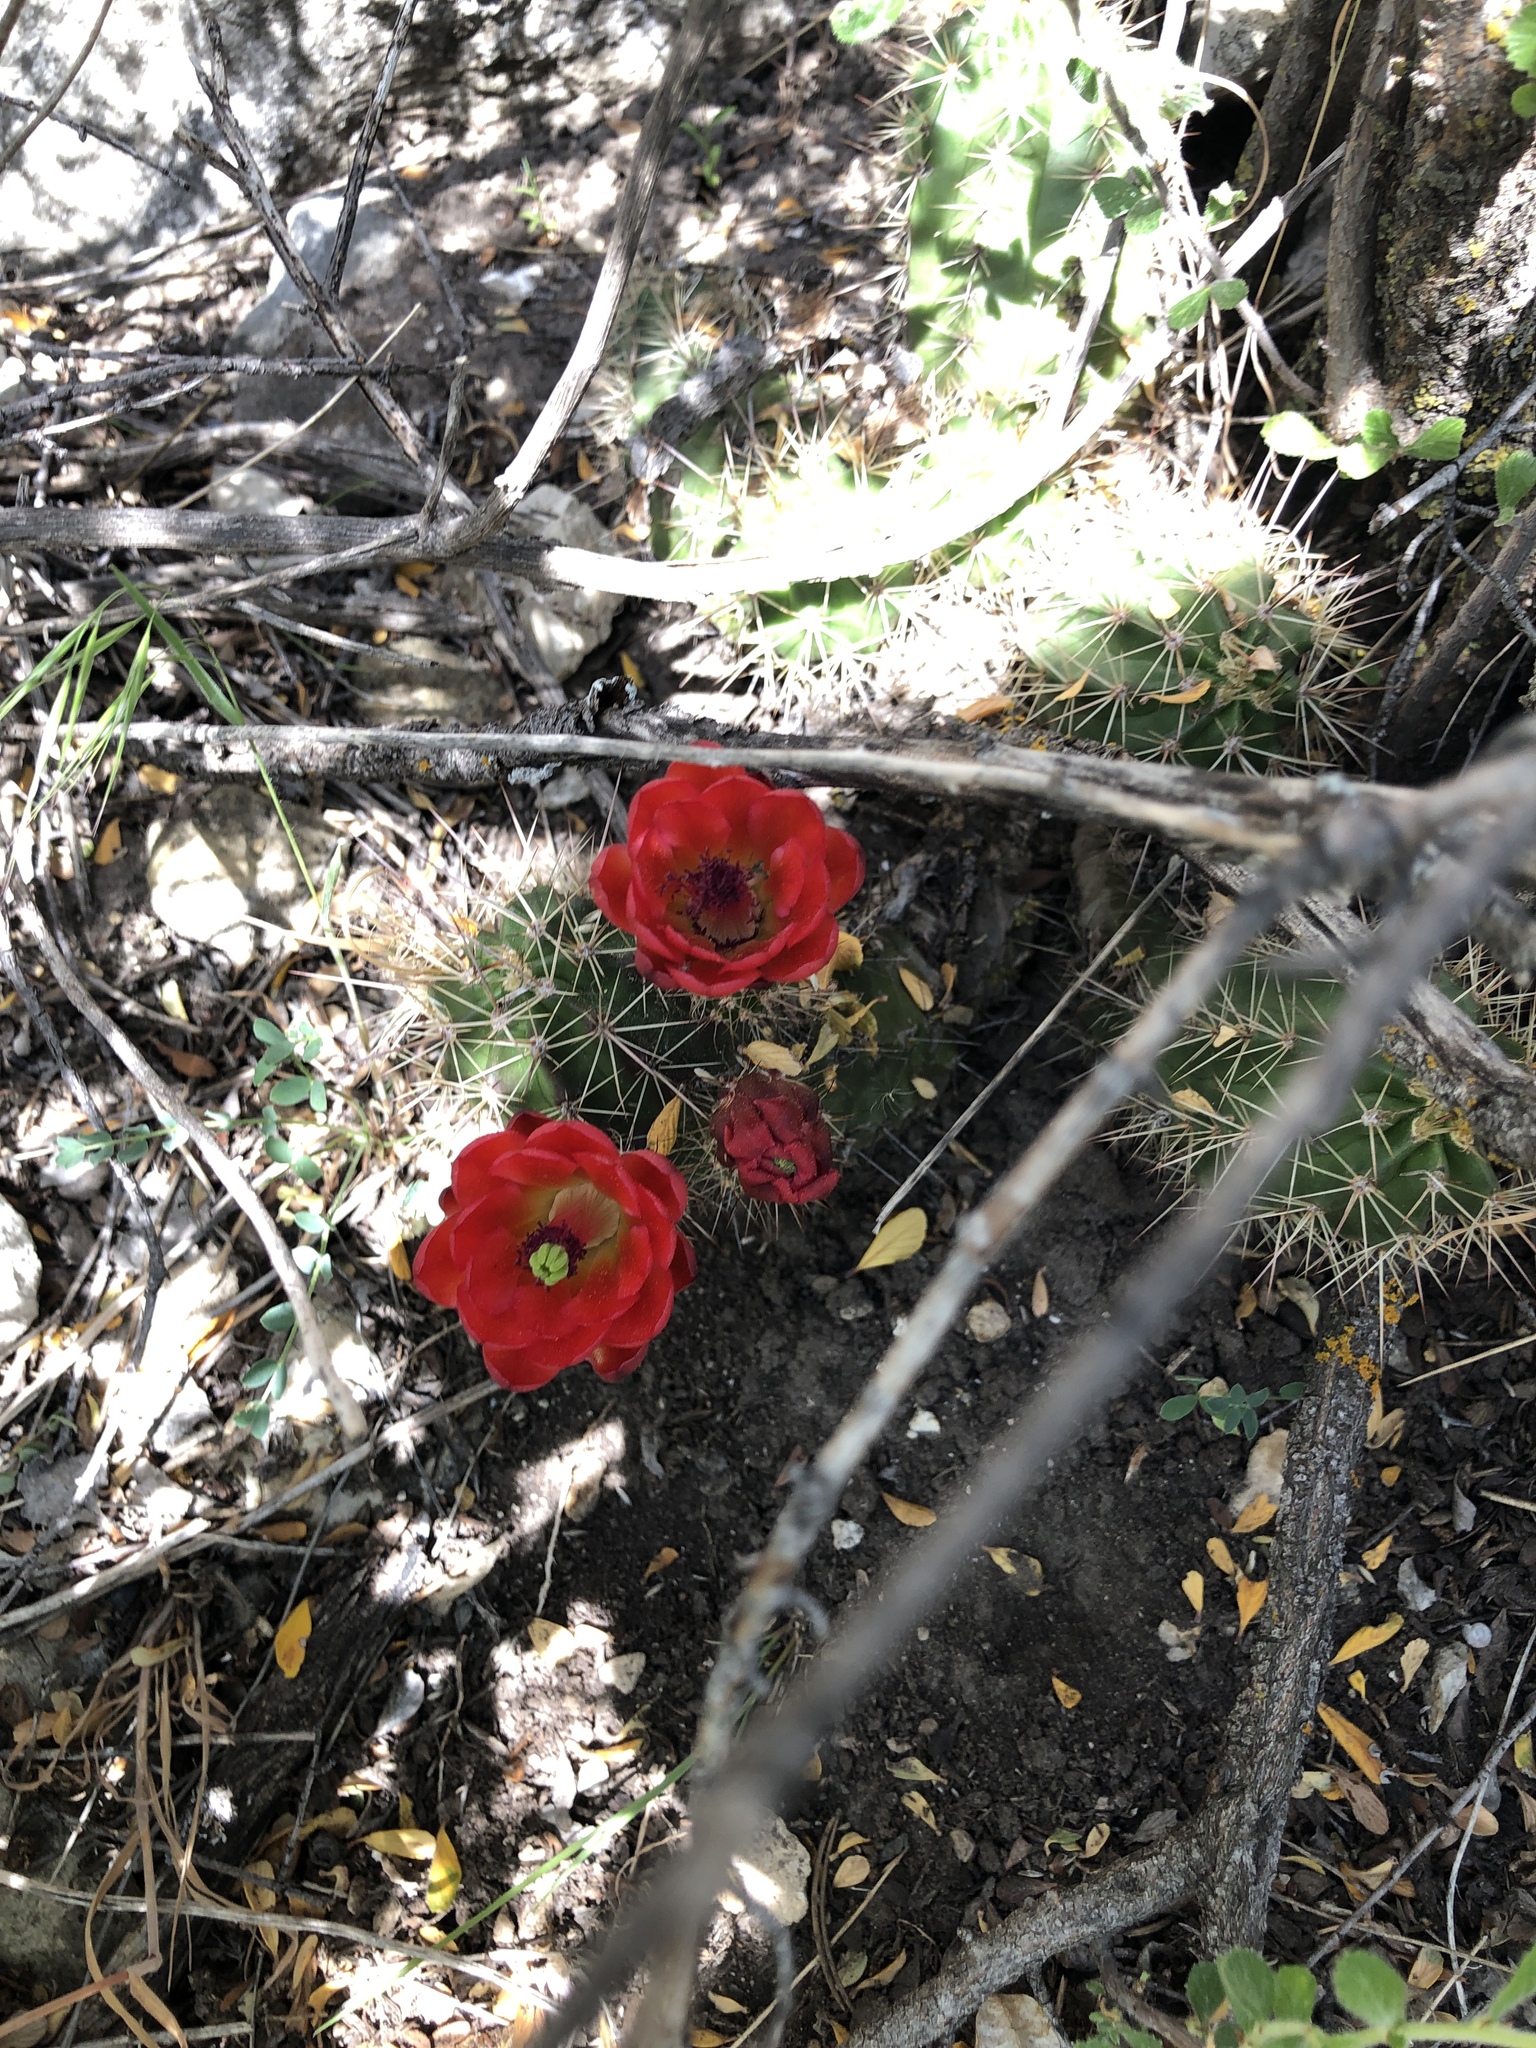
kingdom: Plantae
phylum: Tracheophyta
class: Magnoliopsida
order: Caryophyllales
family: Cactaceae
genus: Echinocereus
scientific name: Echinocereus bakeri
